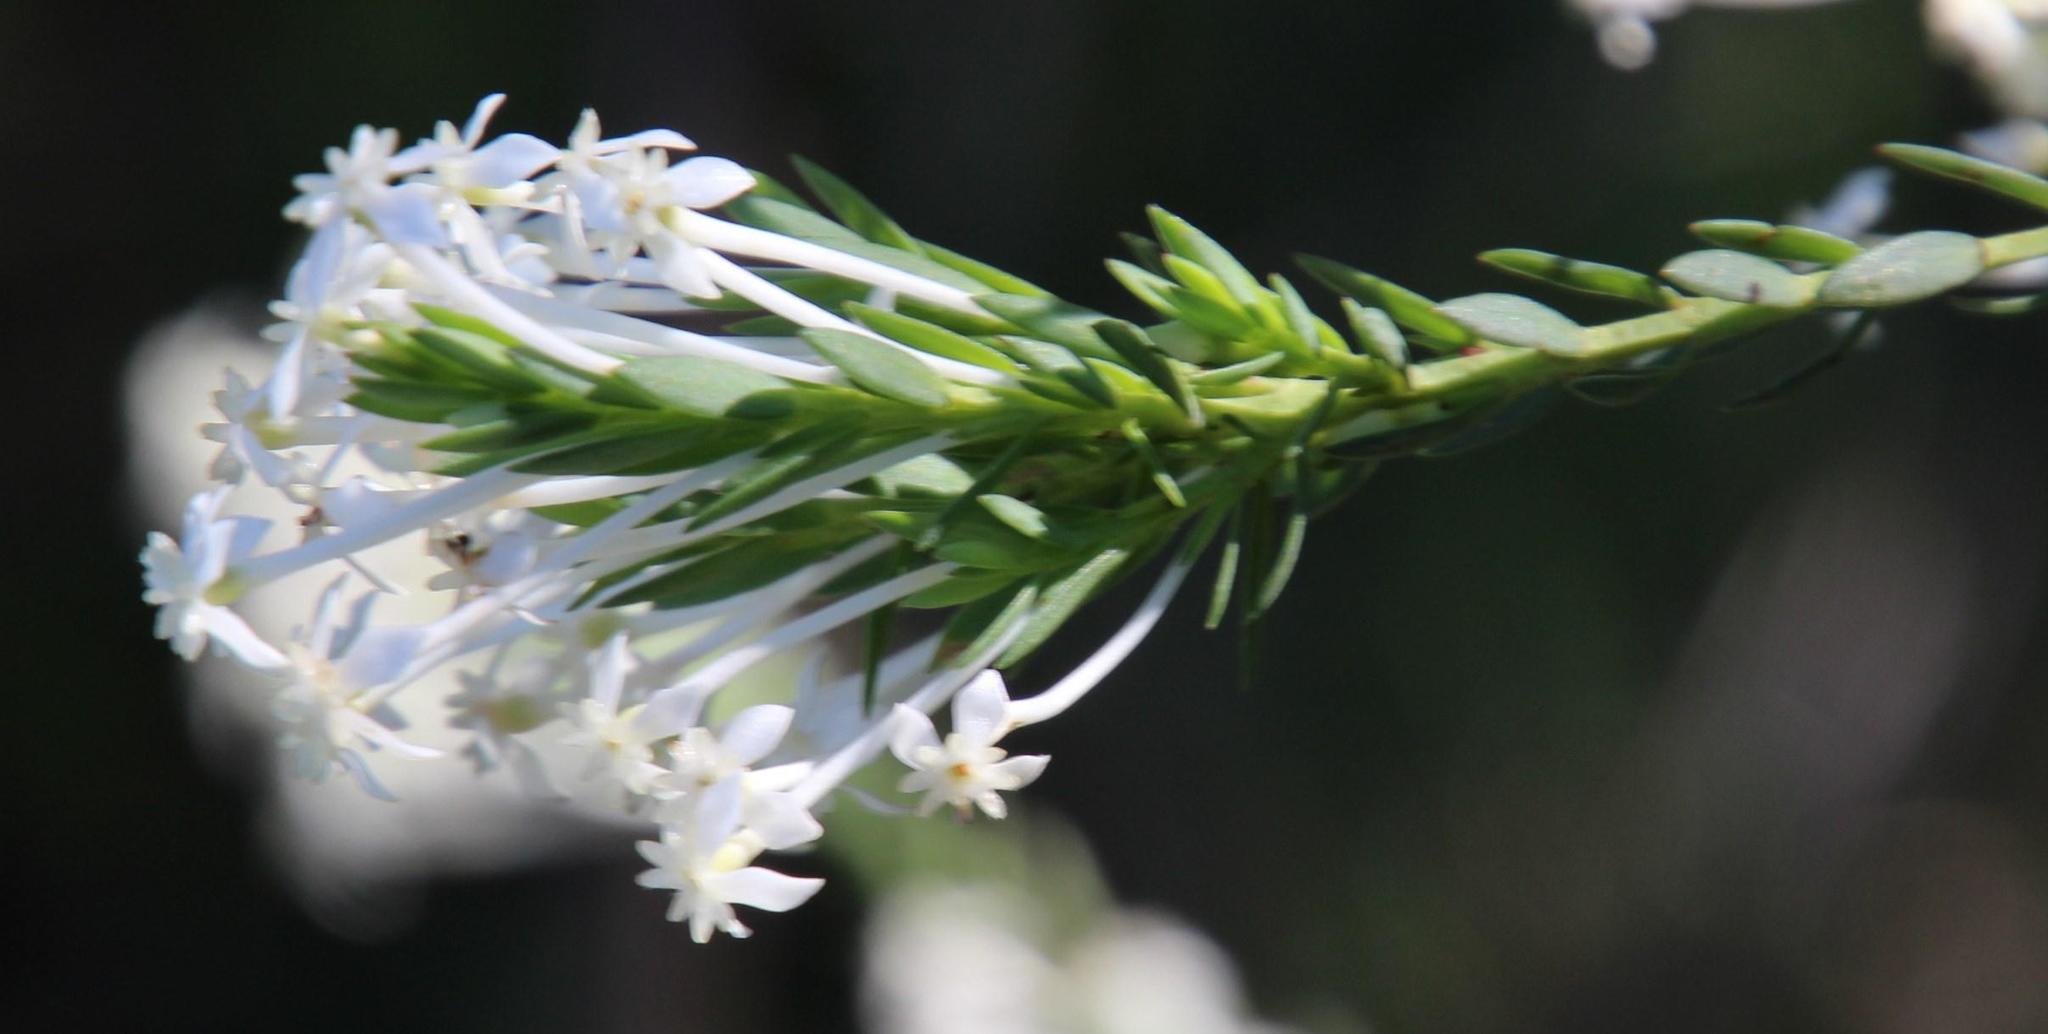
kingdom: Plantae
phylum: Tracheophyta
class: Magnoliopsida
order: Malvales
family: Thymelaeaceae
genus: Struthiola
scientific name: Struthiola myrsinites
